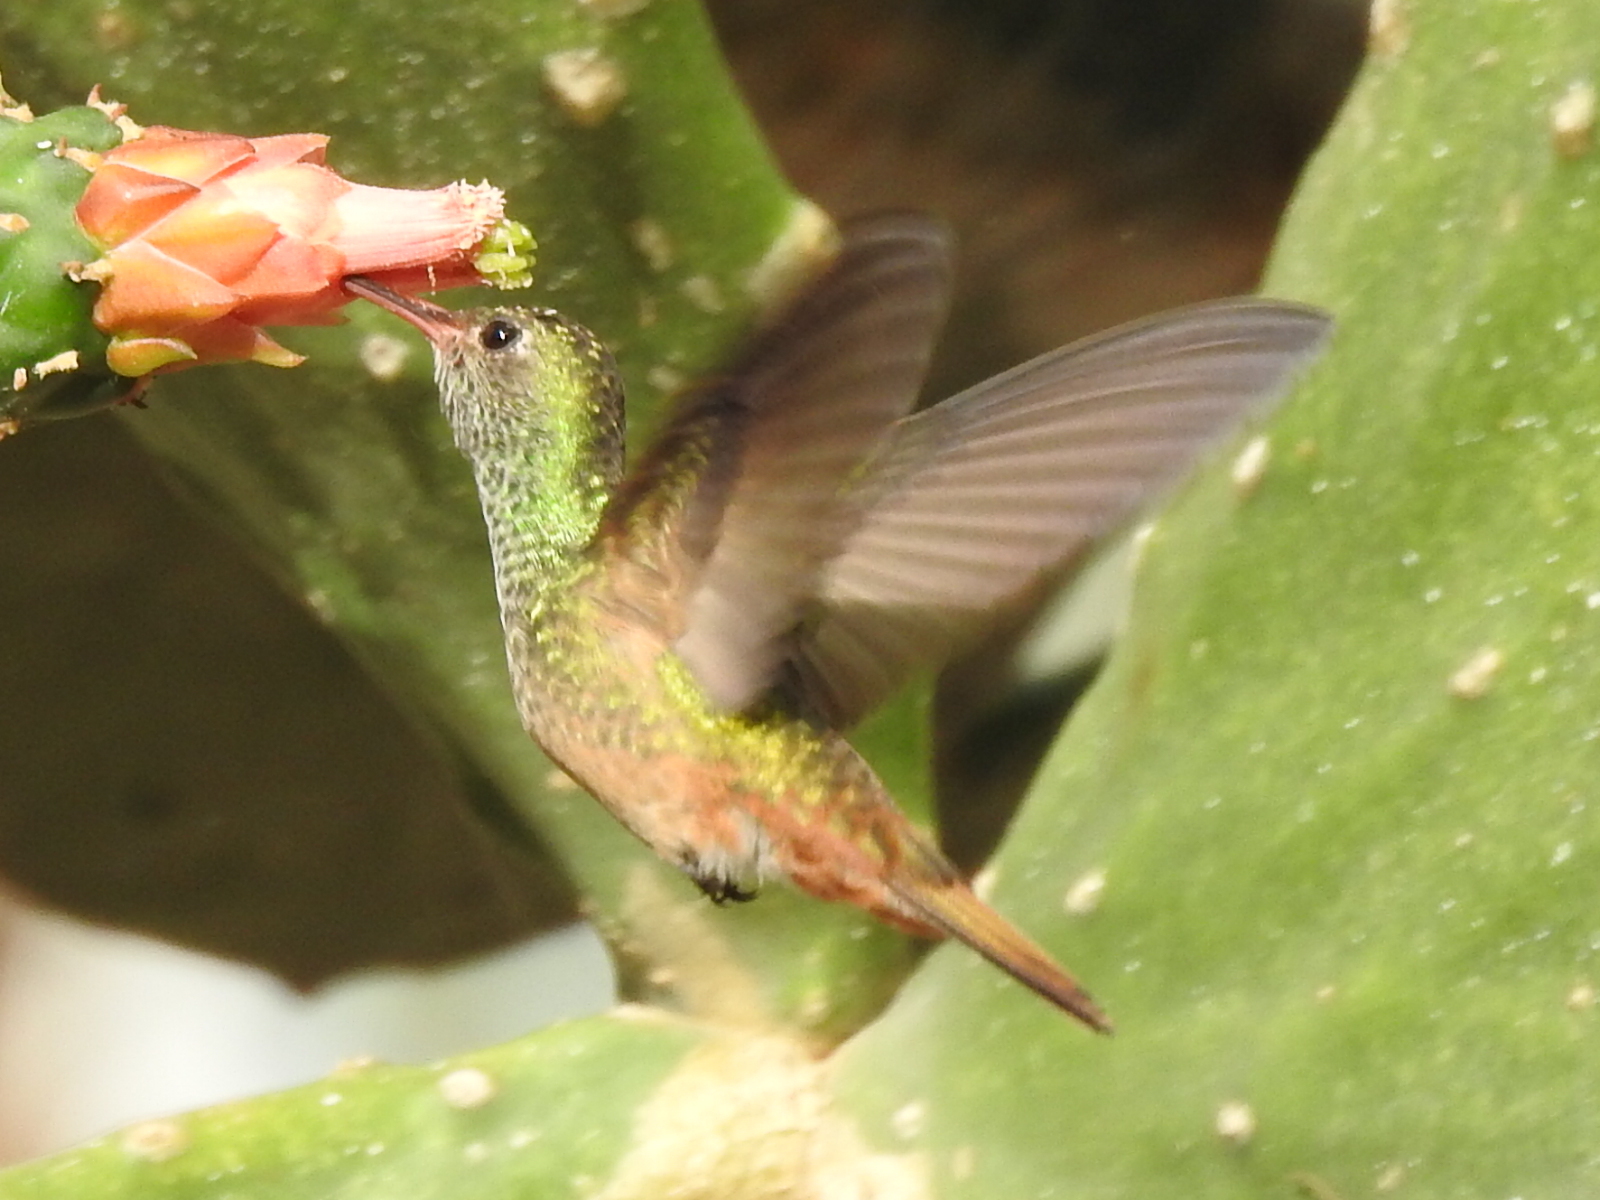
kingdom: Animalia
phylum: Chordata
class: Aves
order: Apodiformes
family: Trochilidae
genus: Amazilia
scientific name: Amazilia yucatanensis
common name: Buff-bellied hummingbird
